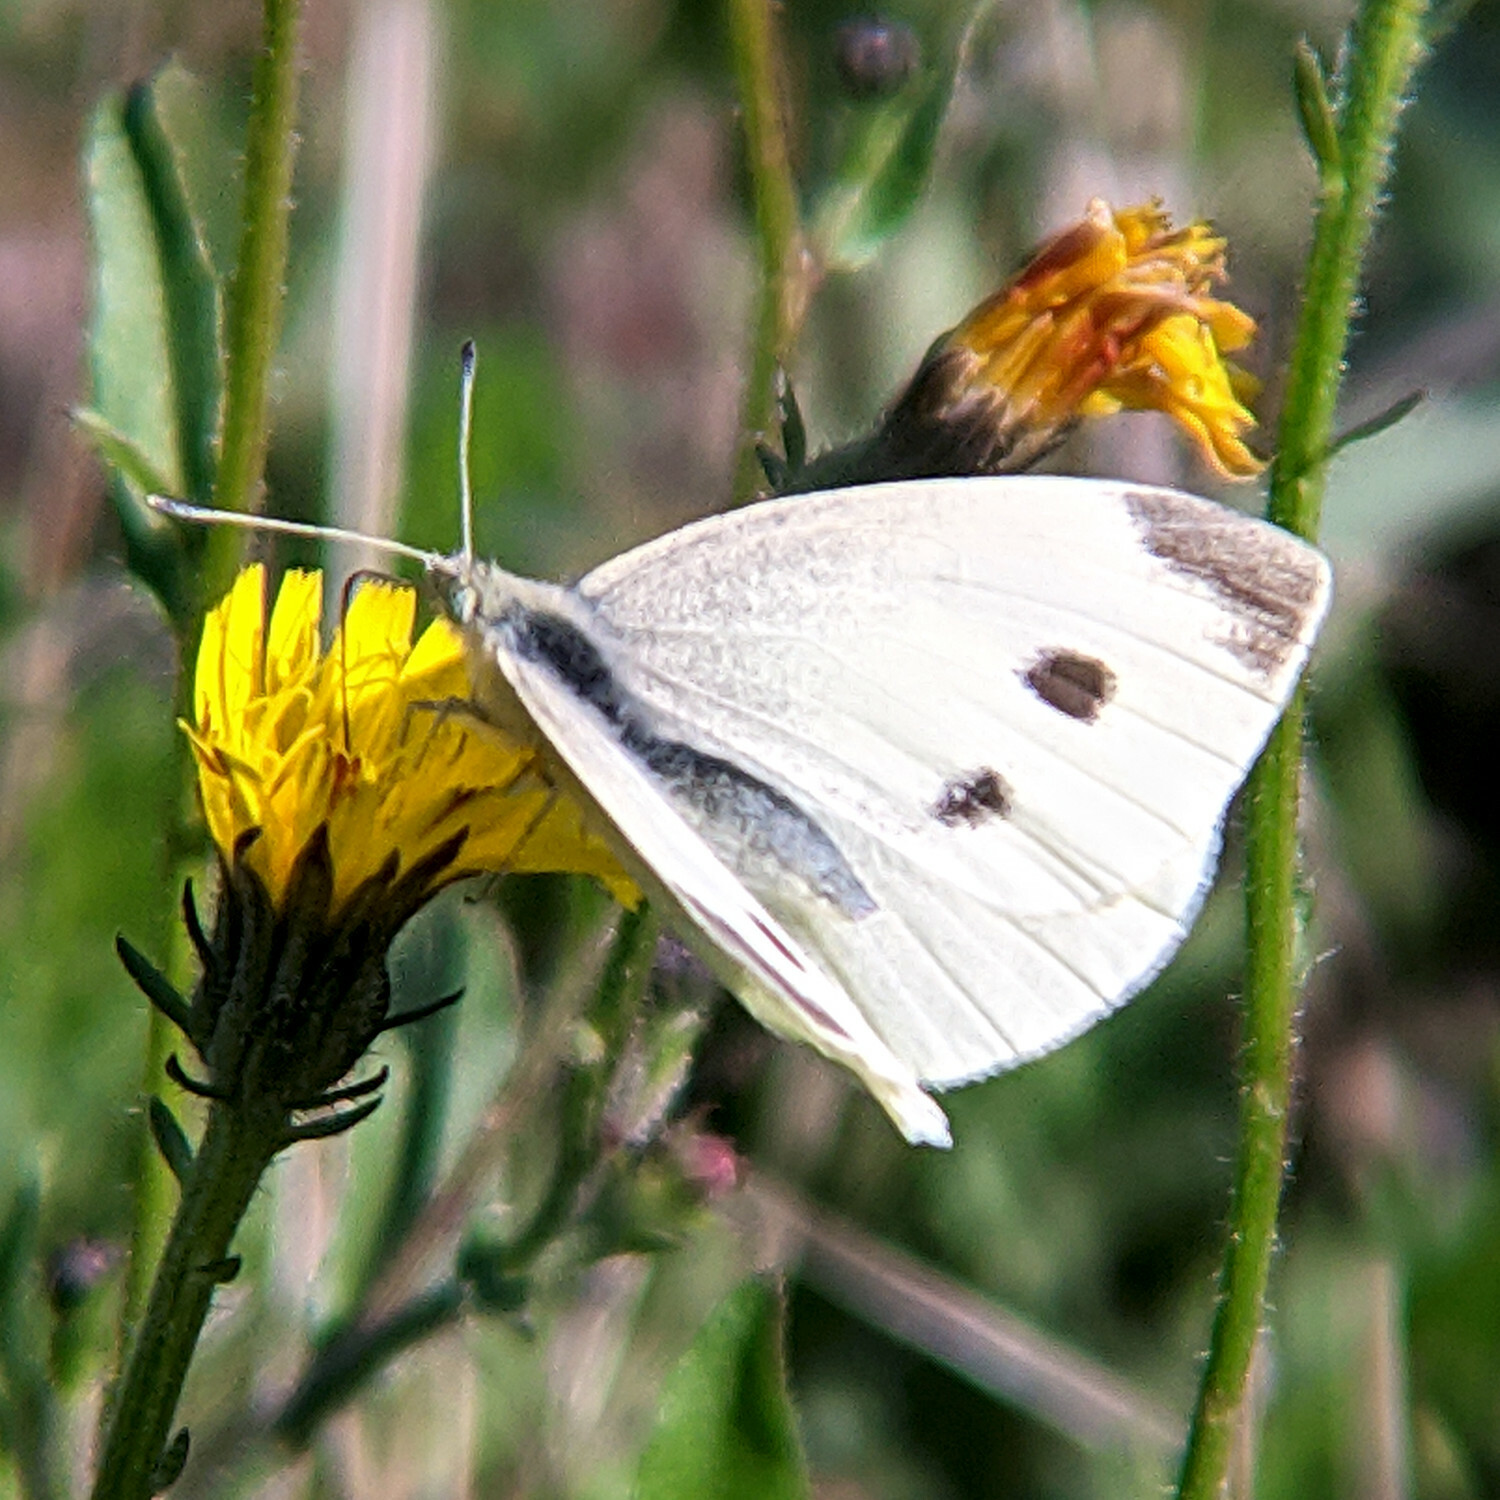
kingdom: Animalia
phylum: Arthropoda
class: Insecta
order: Lepidoptera
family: Pieridae
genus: Pieris
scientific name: Pieris rapae
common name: Small white
